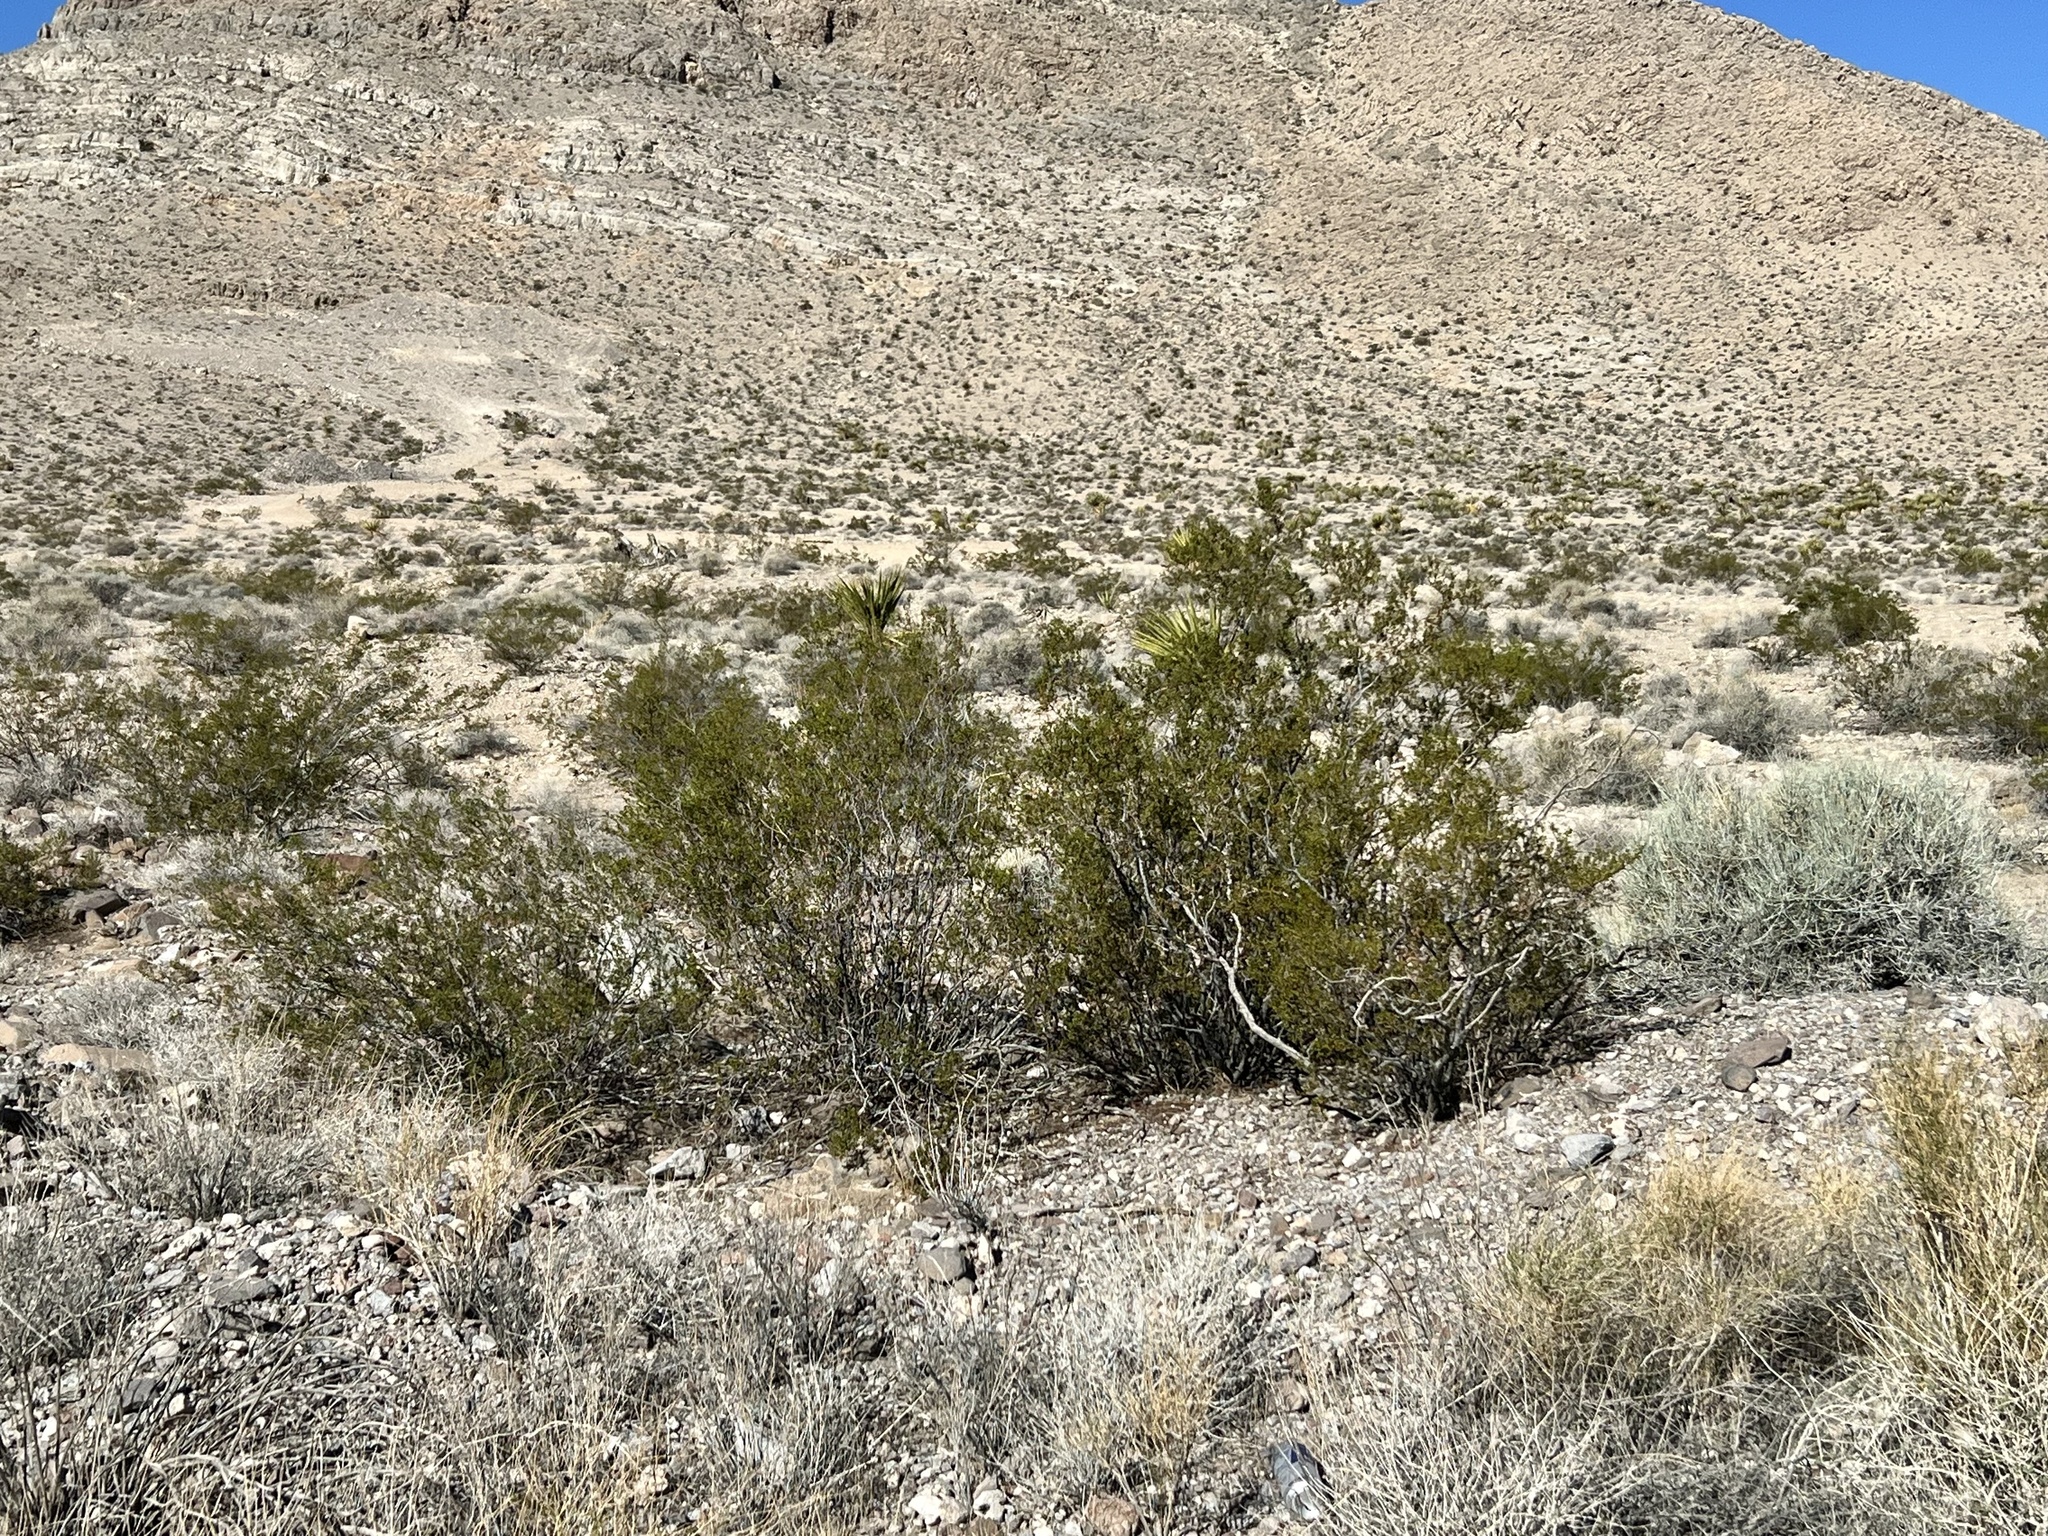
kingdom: Plantae
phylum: Tracheophyta
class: Magnoliopsida
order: Zygophyllales
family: Zygophyllaceae
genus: Larrea
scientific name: Larrea tridentata
